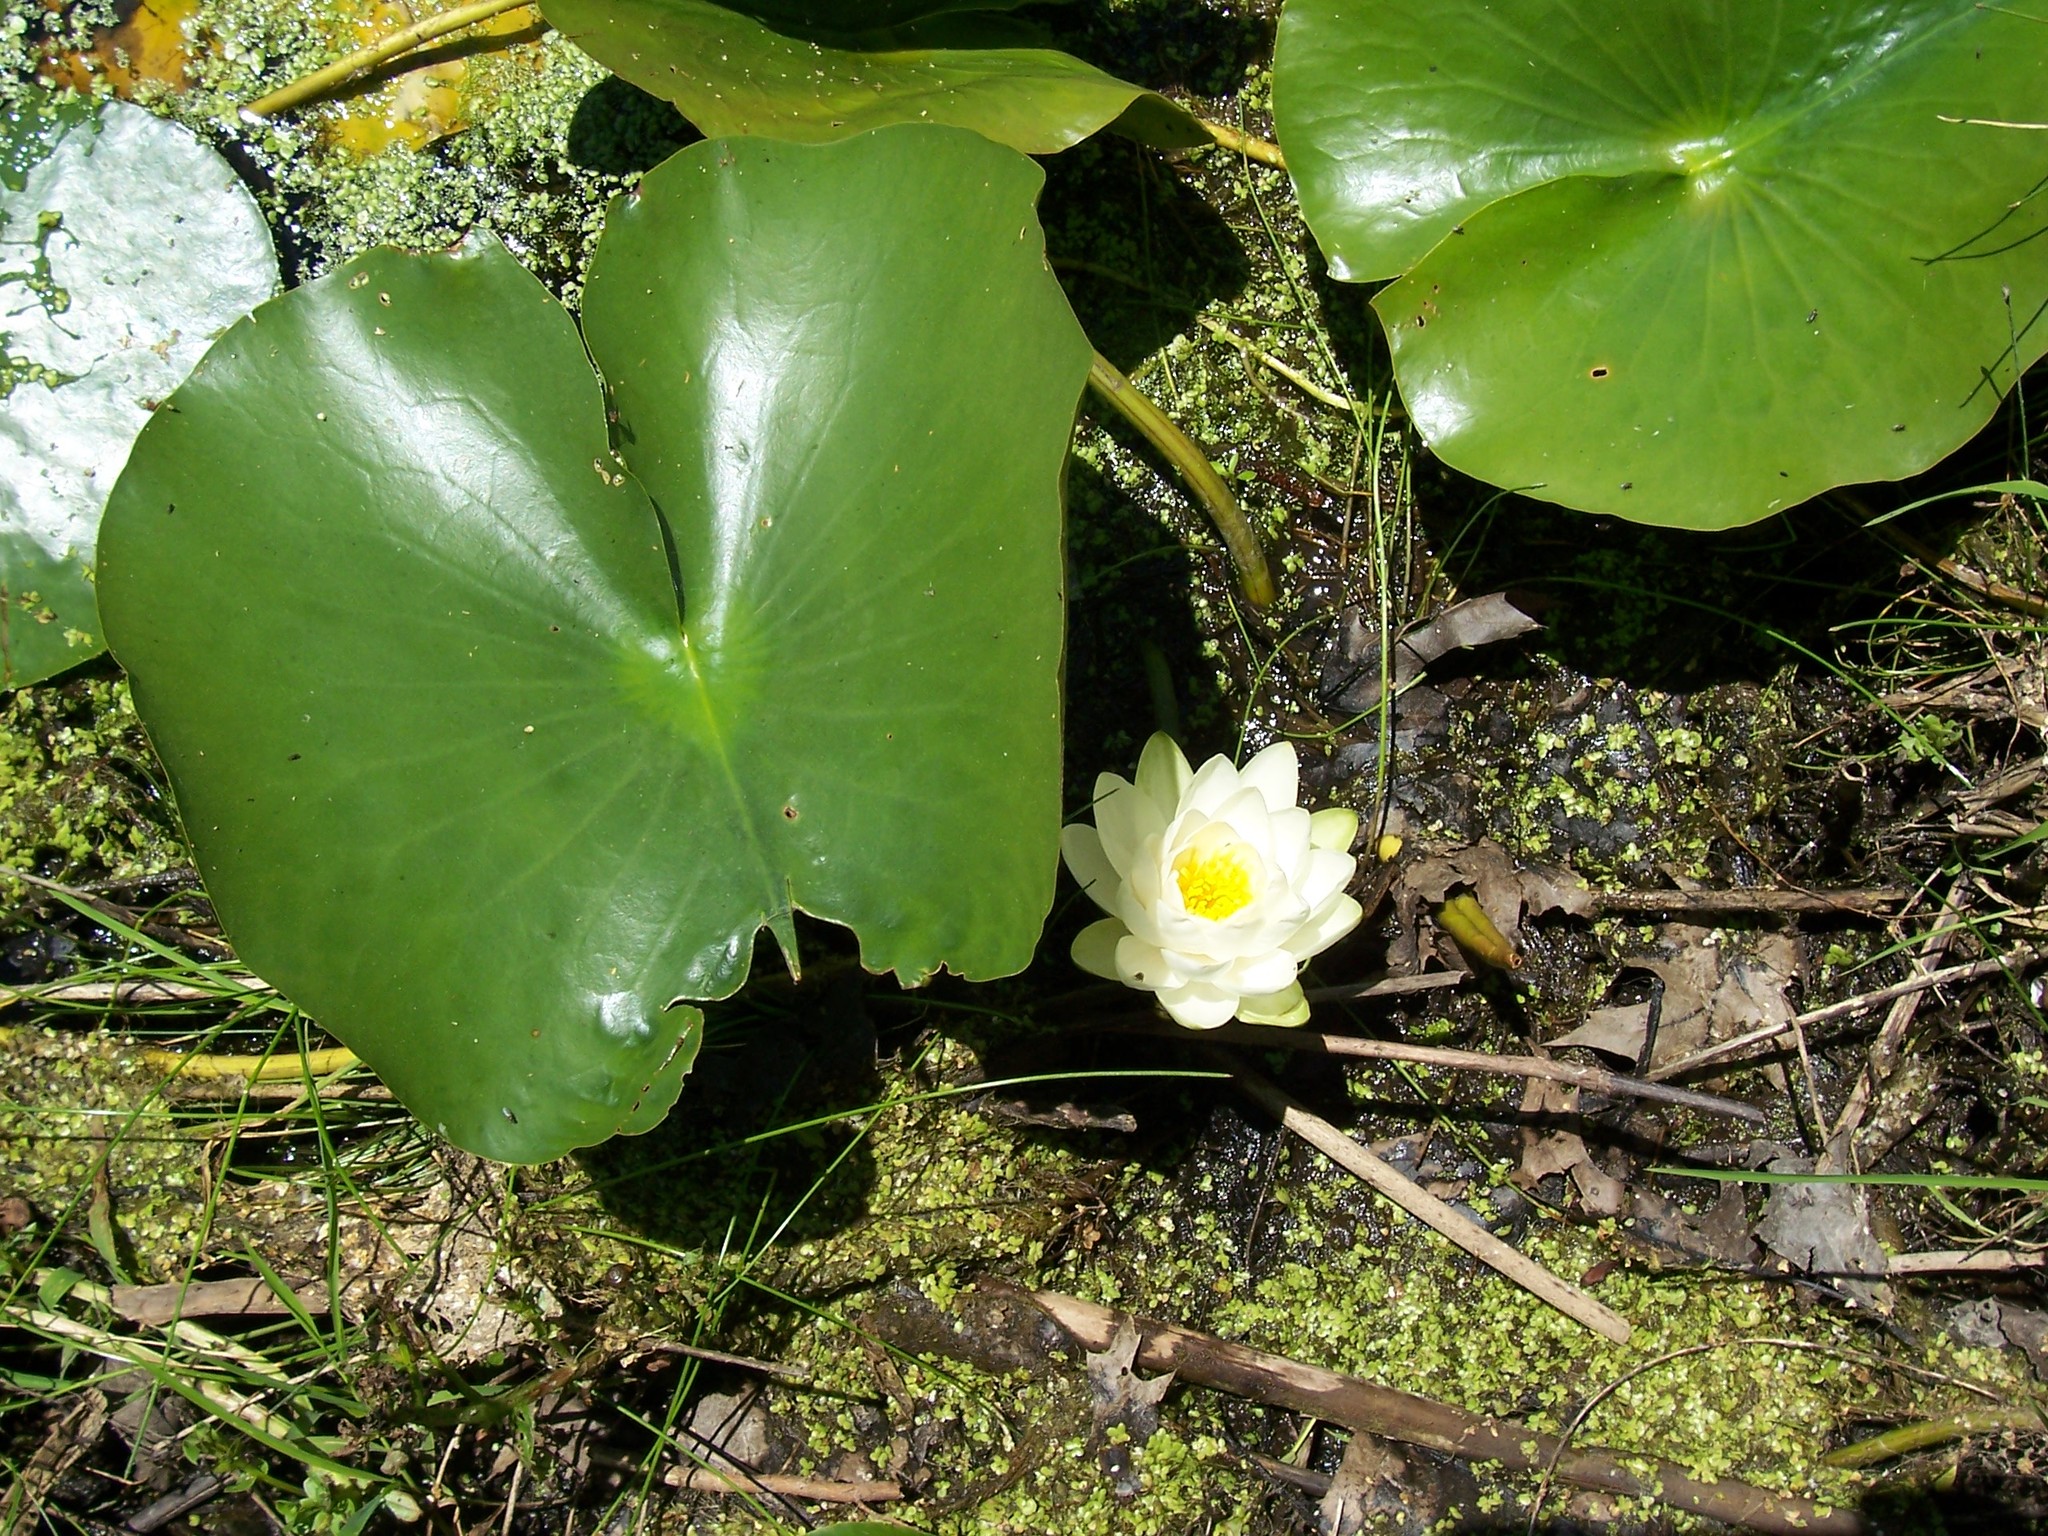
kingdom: Plantae
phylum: Tracheophyta
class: Magnoliopsida
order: Nymphaeales
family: Nymphaeaceae
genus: Nymphaea
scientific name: Nymphaea odorata
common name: Fragrant water-lily
